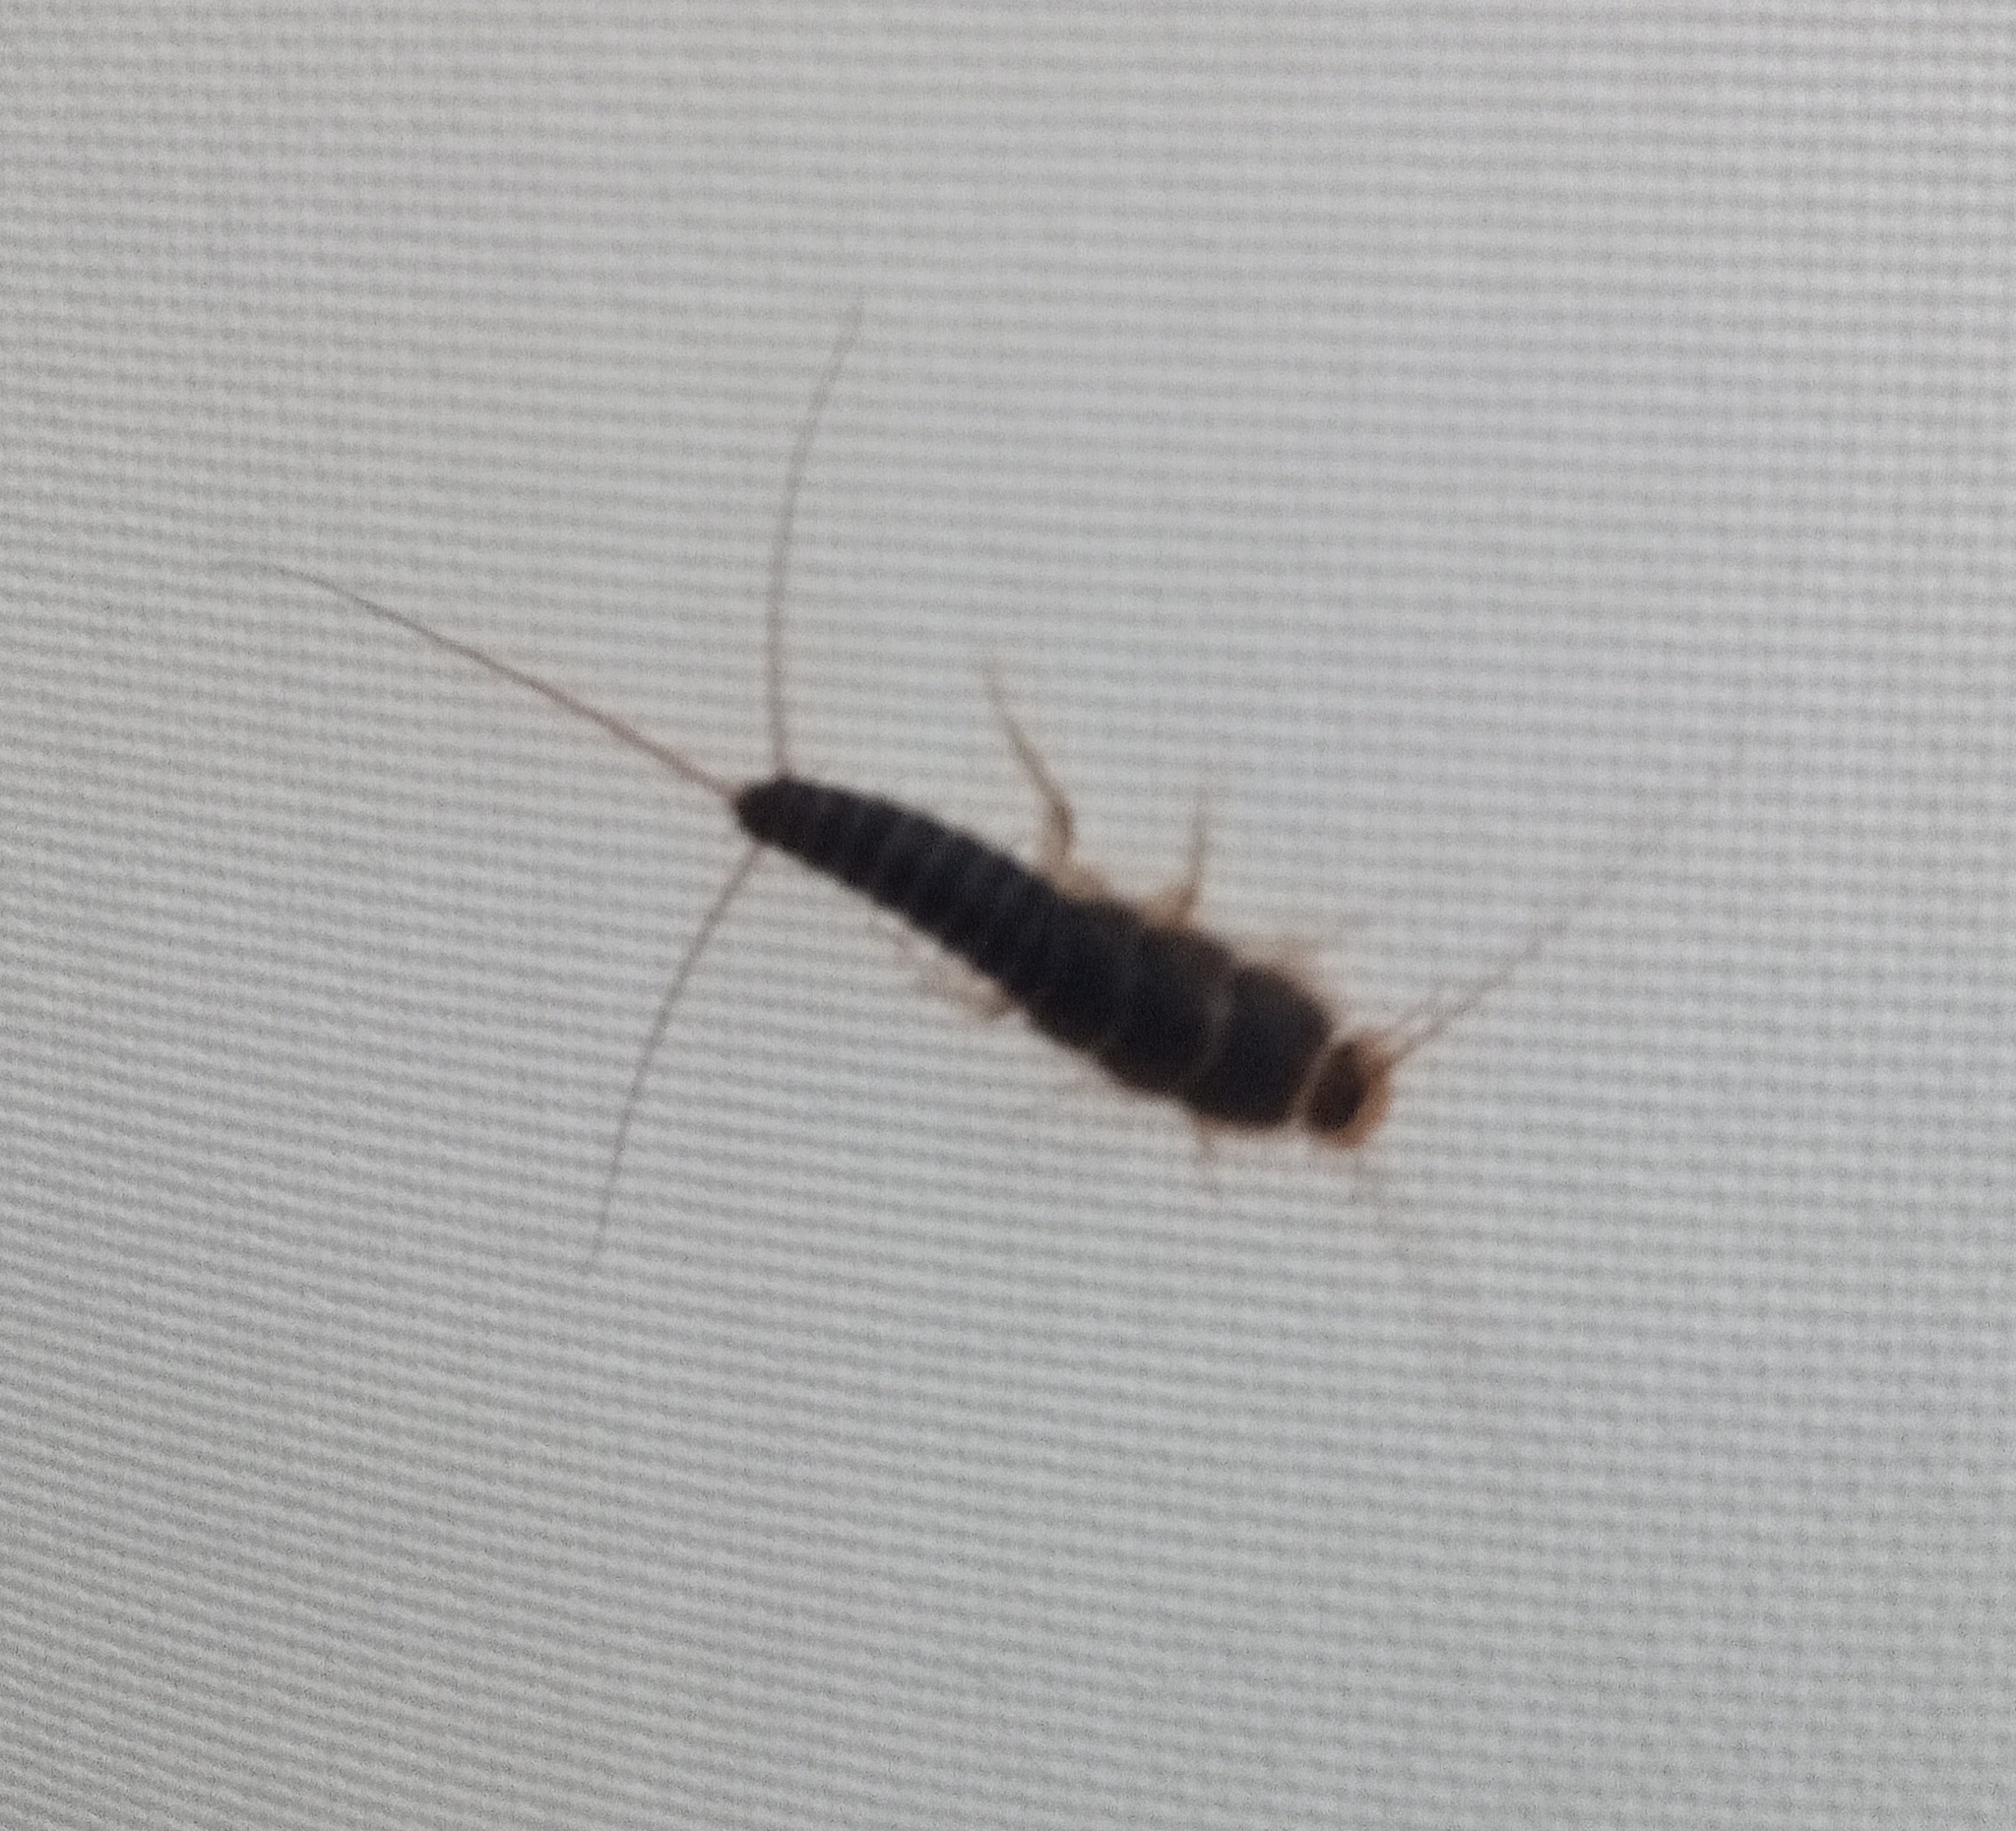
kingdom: Animalia
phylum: Arthropoda
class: Insecta
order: Zygentoma
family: Lepismatidae
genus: Ctenolepisma
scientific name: Ctenolepisma longicaudatum
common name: Silverfish
